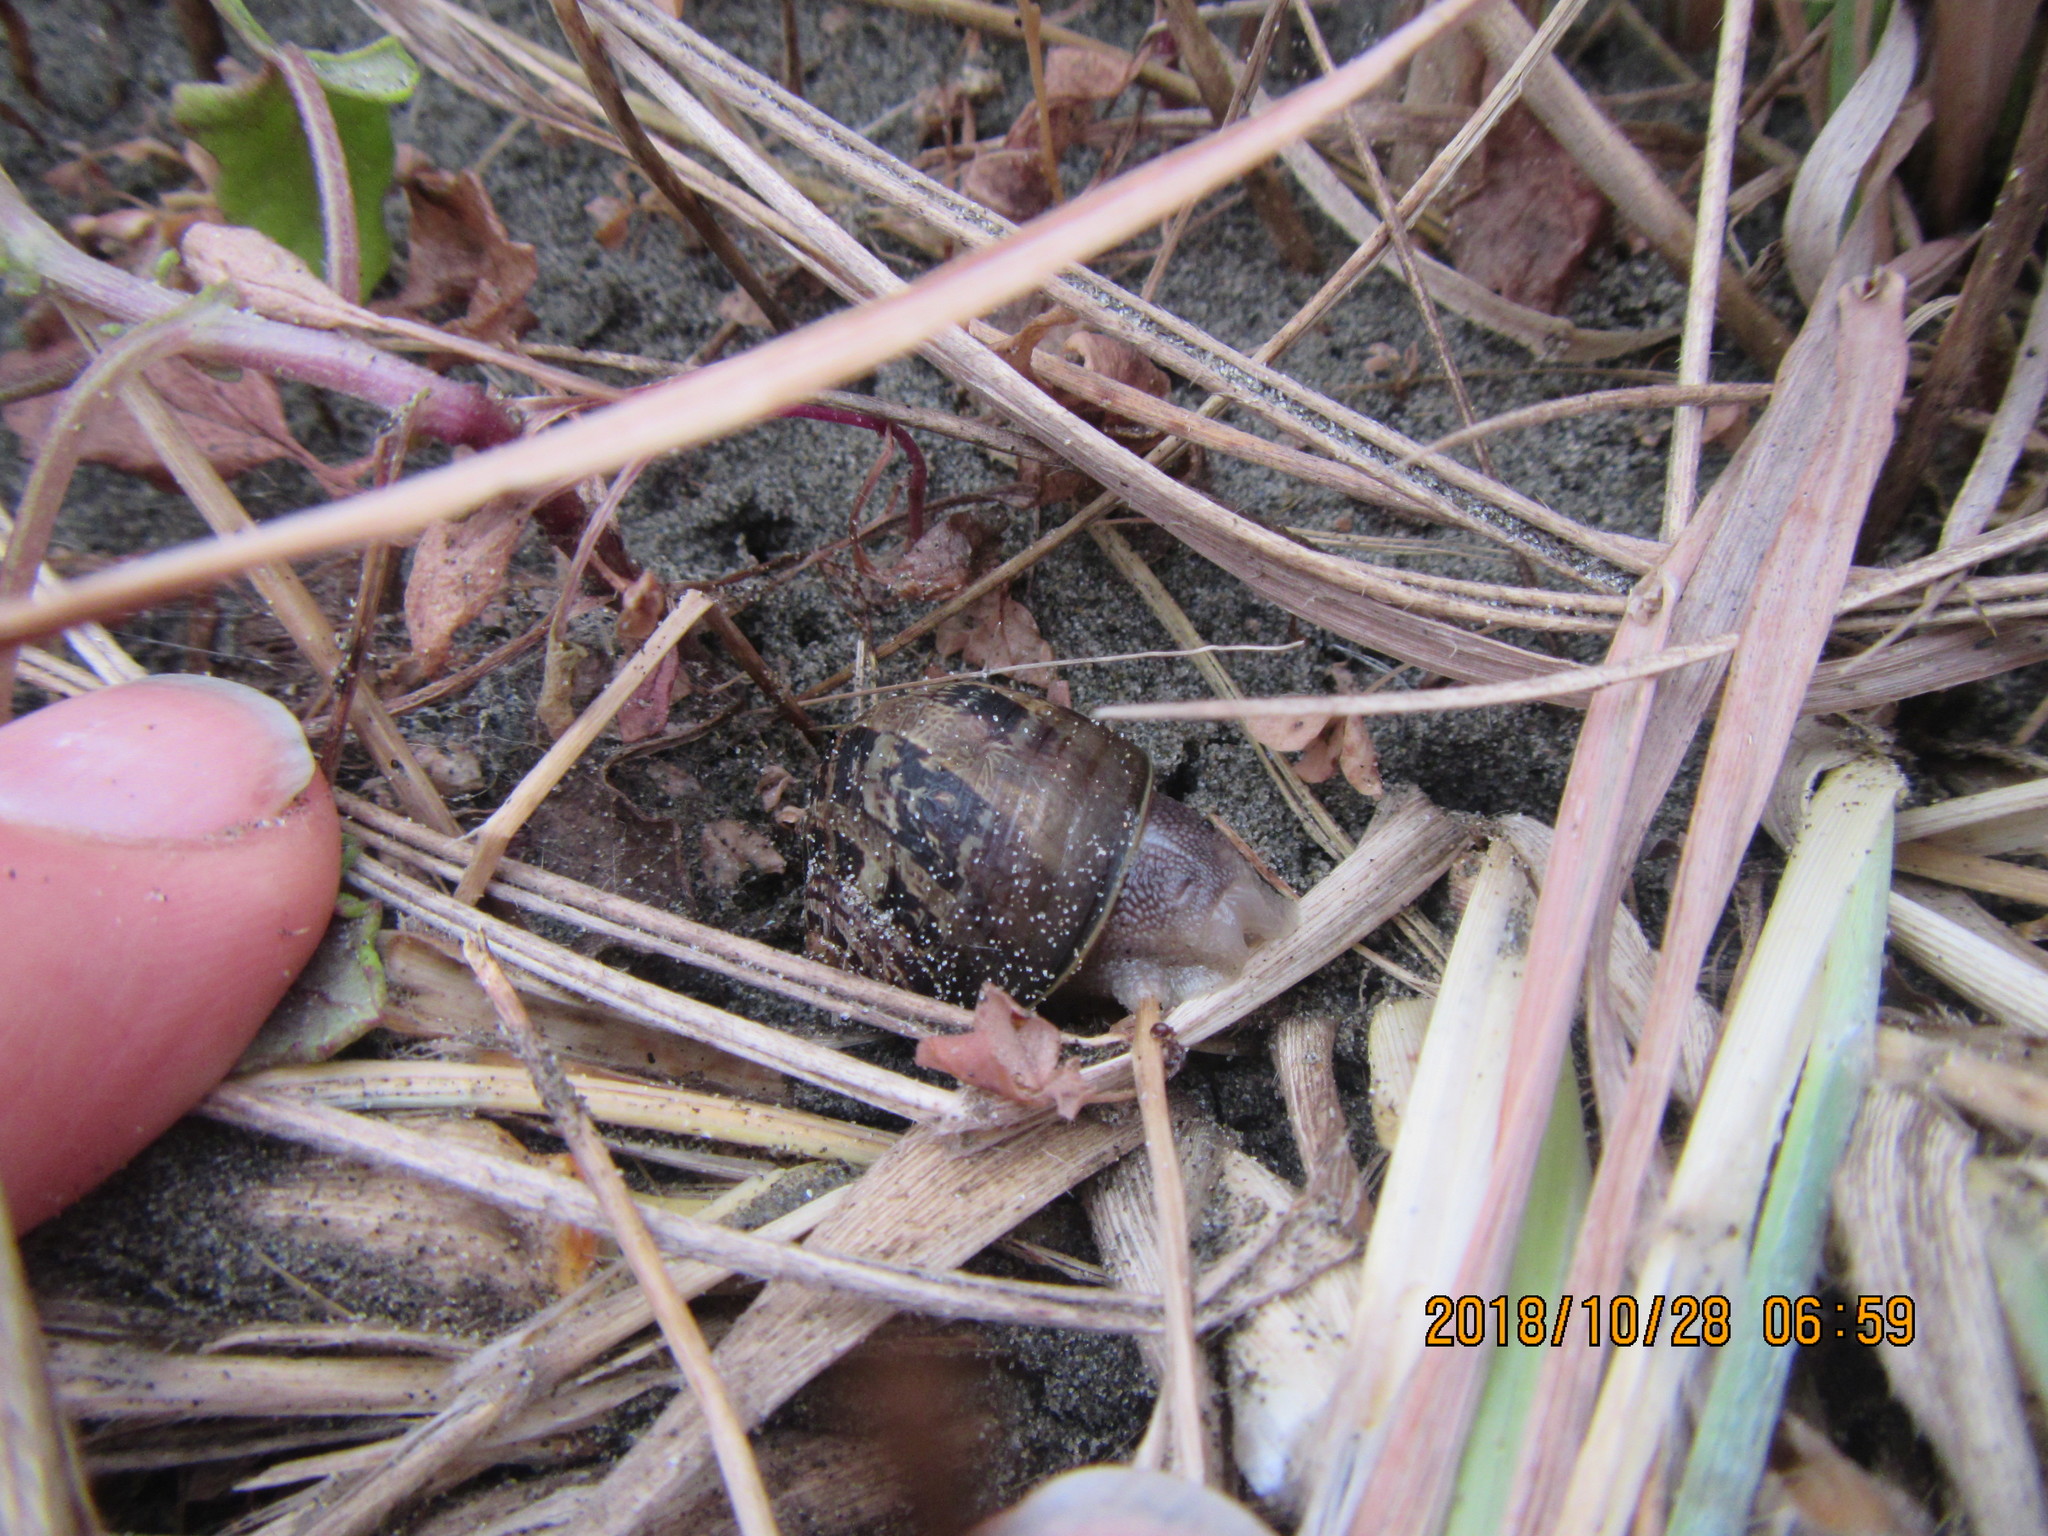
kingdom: Animalia
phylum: Mollusca
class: Gastropoda
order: Stylommatophora
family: Helicidae
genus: Cornu
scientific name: Cornu aspersum
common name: Brown garden snail
